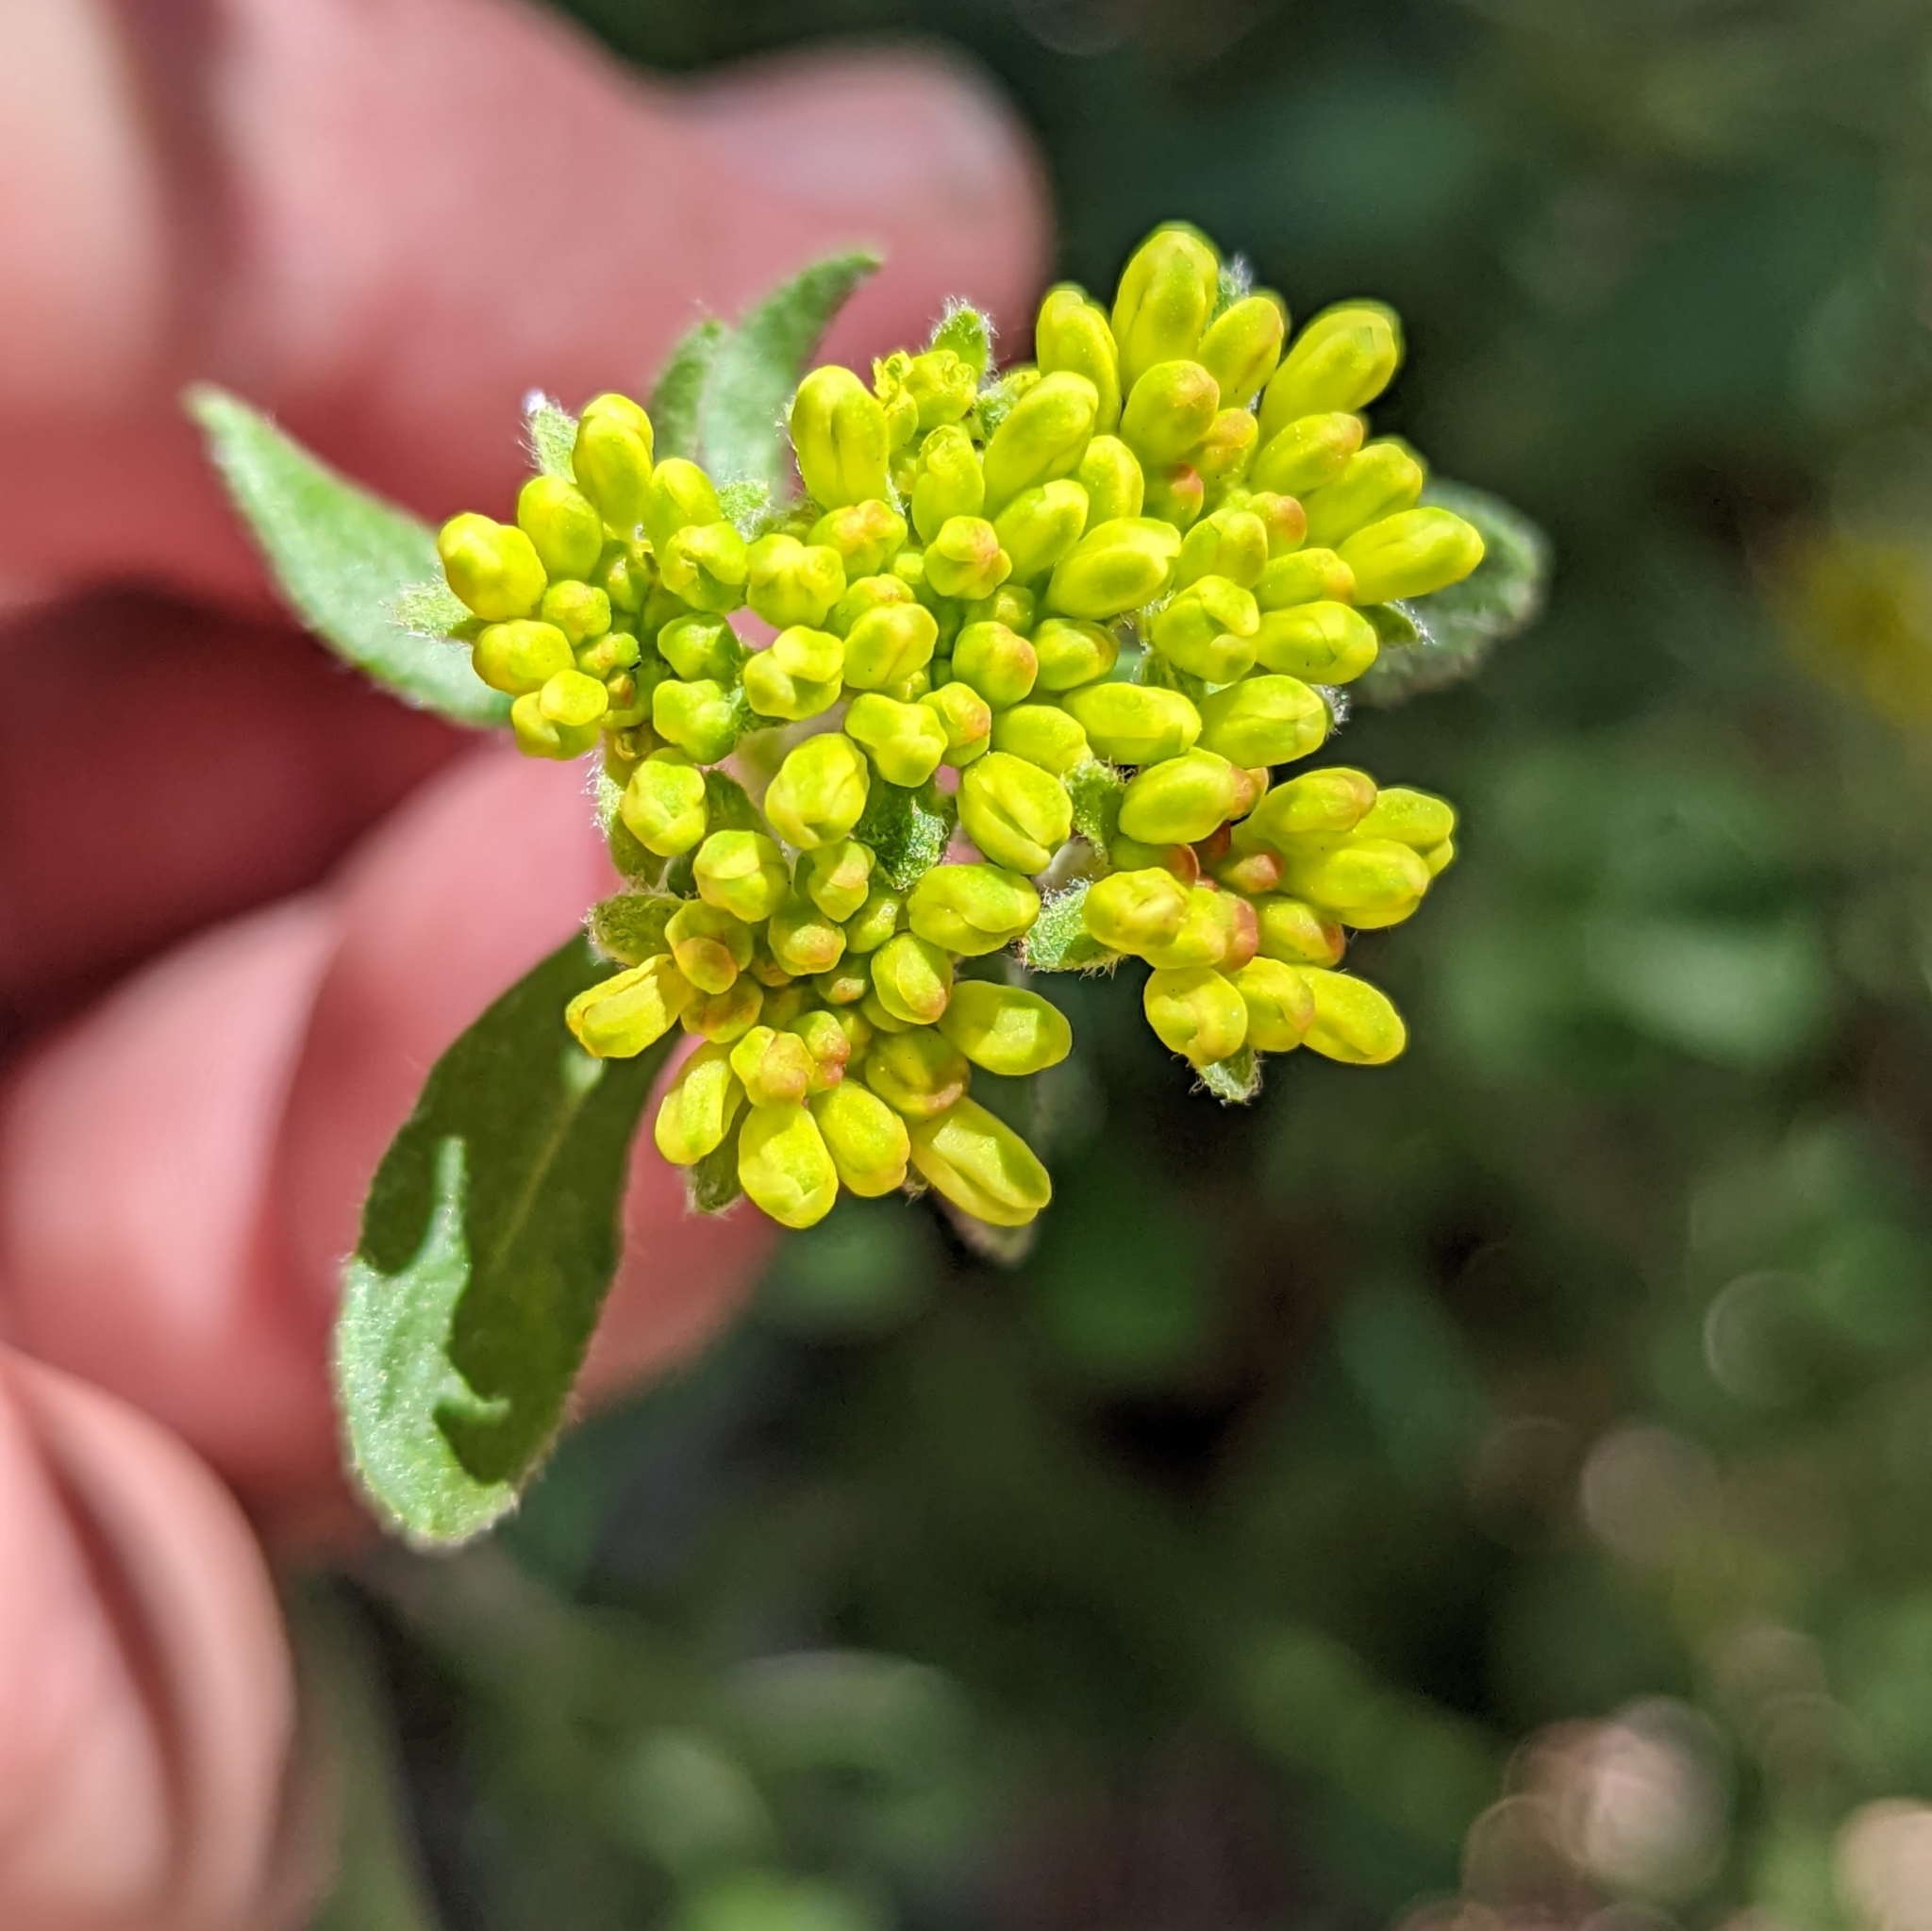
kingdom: Plantae
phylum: Tracheophyta
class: Magnoliopsida
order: Caryophyllales
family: Polygonaceae
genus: Eriogonum
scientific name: Eriogonum umbellatum
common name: Sulfur-buckwheat
